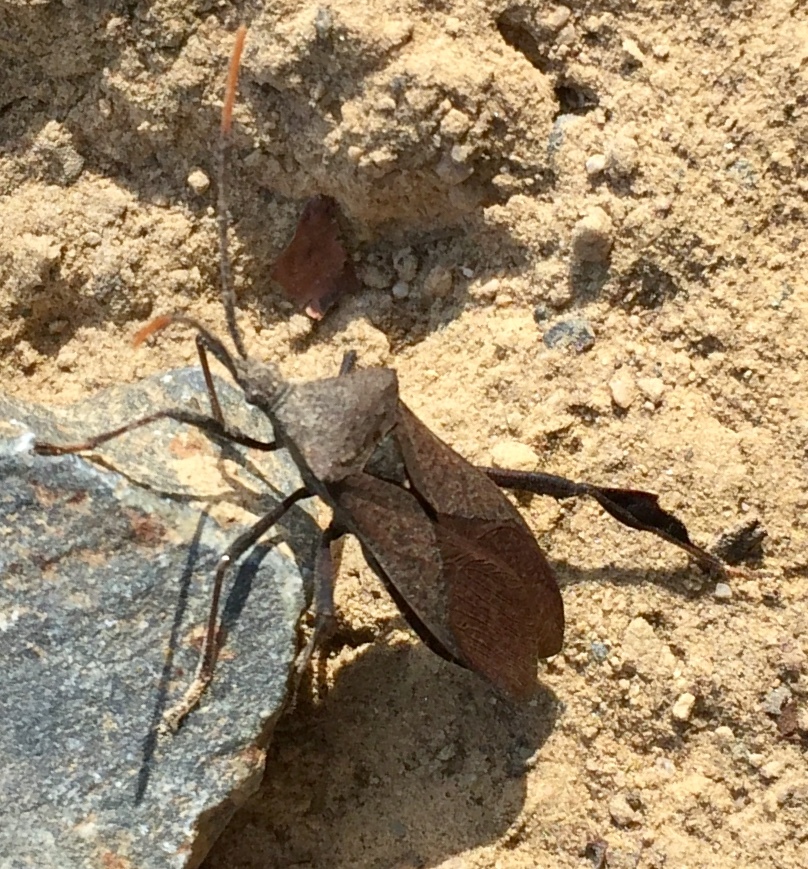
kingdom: Animalia
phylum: Arthropoda
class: Insecta
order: Hemiptera
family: Coreidae
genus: Acanthocephala
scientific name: Acanthocephala terminalis
